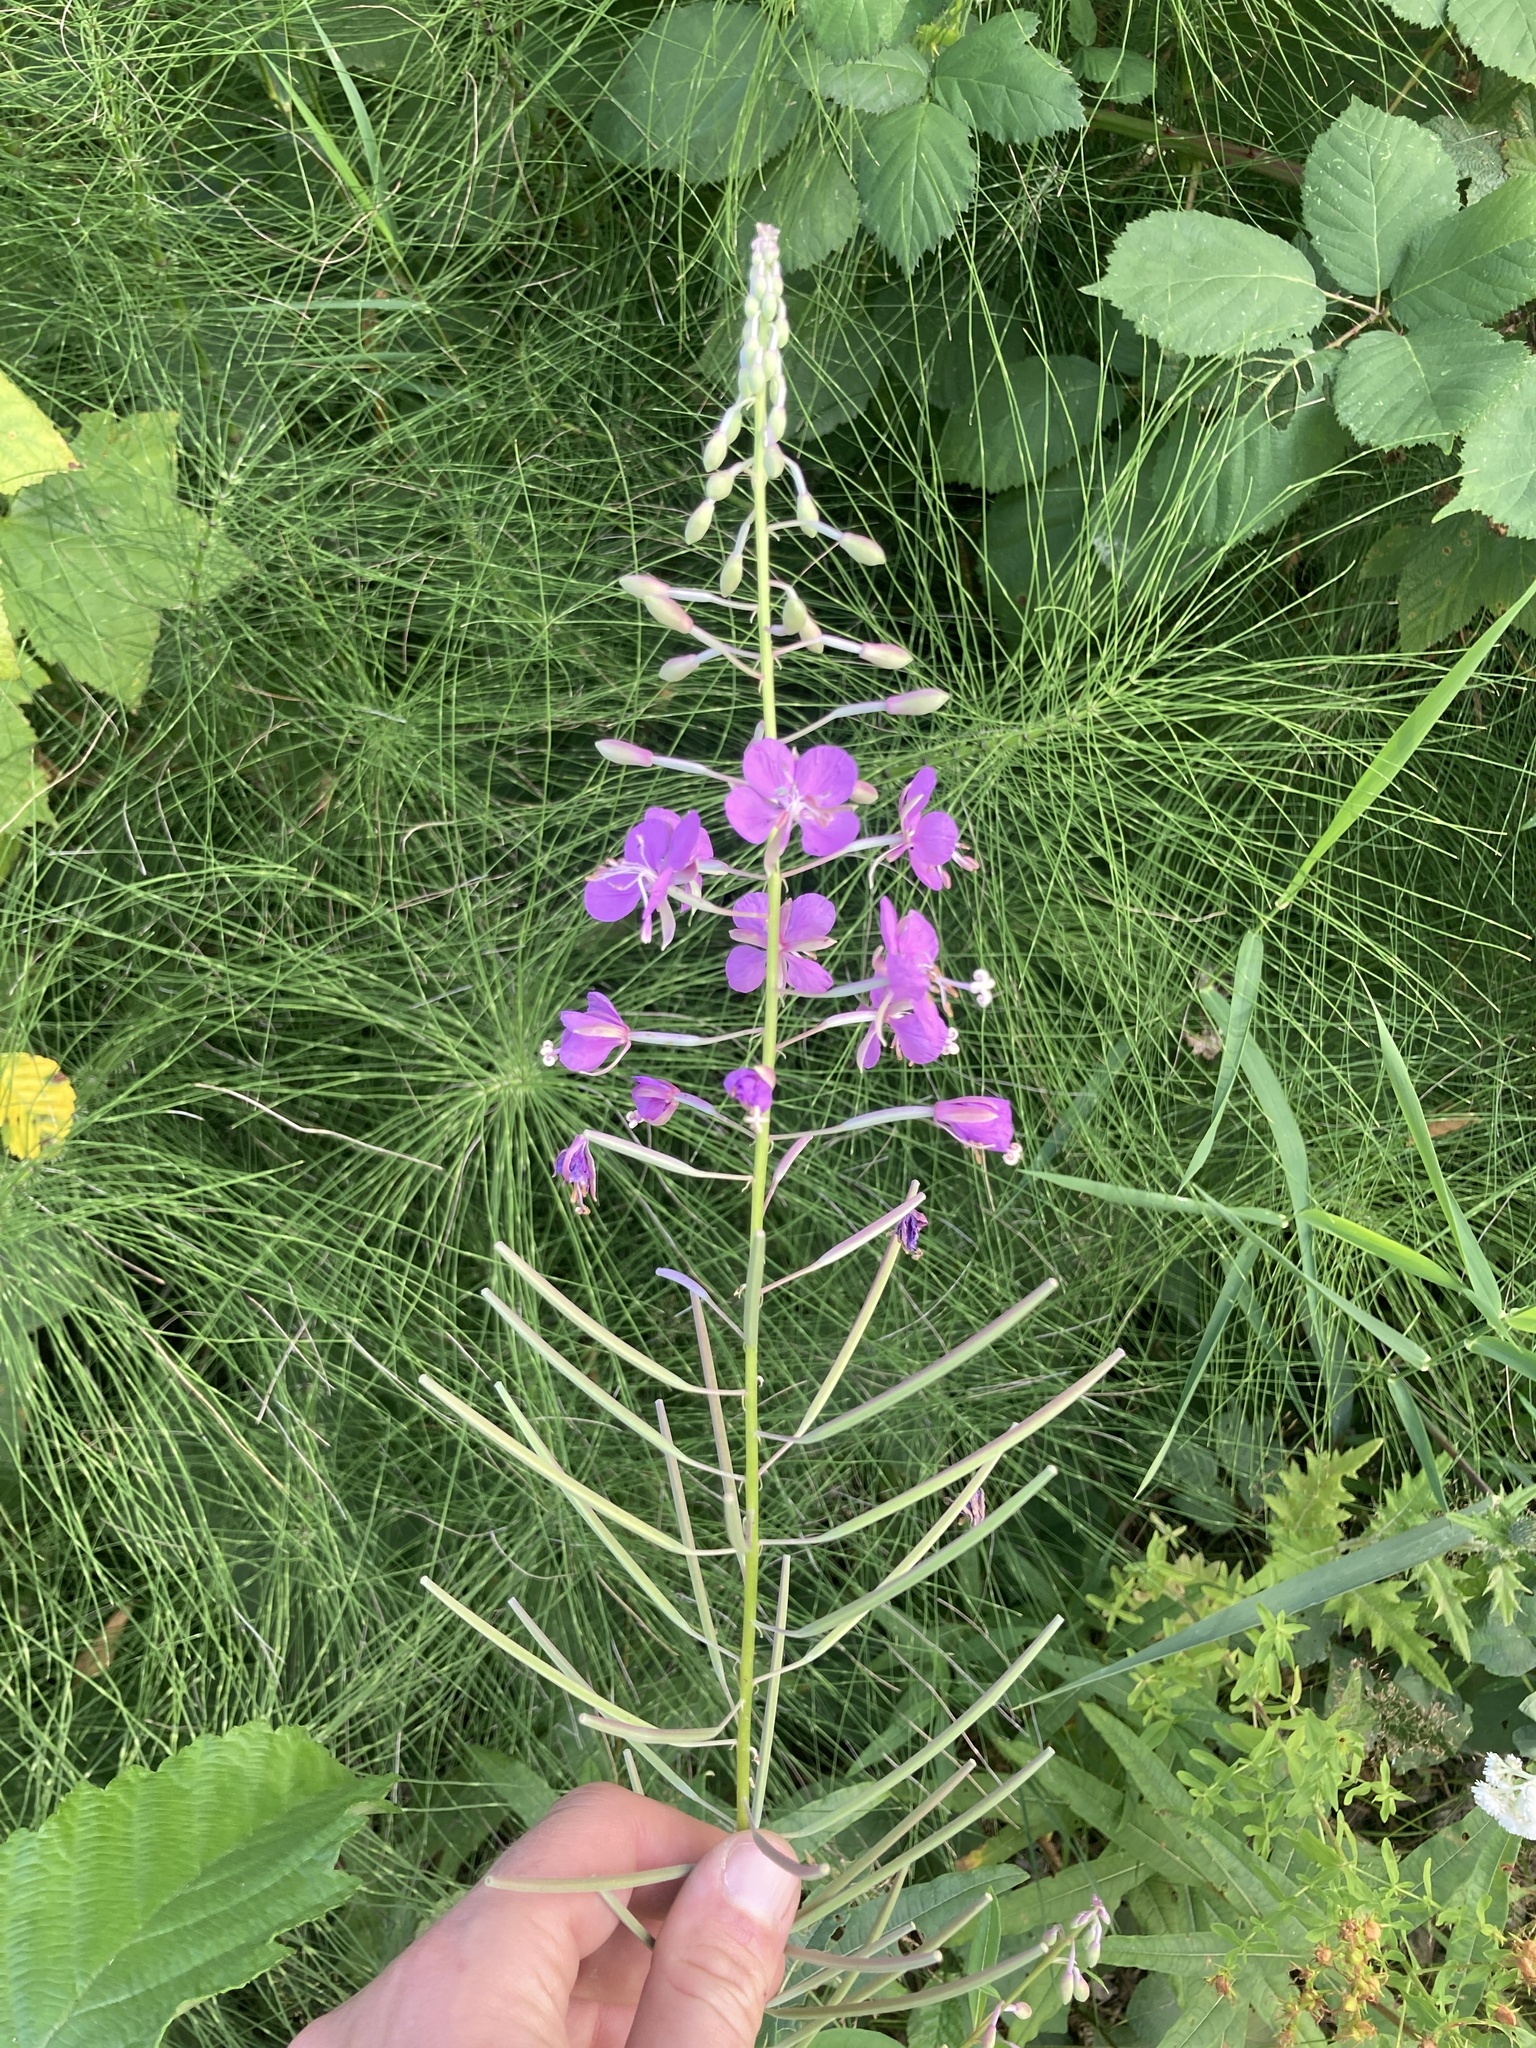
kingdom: Plantae
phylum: Tracheophyta
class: Magnoliopsida
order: Myrtales
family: Onagraceae
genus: Chamaenerion
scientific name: Chamaenerion angustifolium
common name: Fireweed
